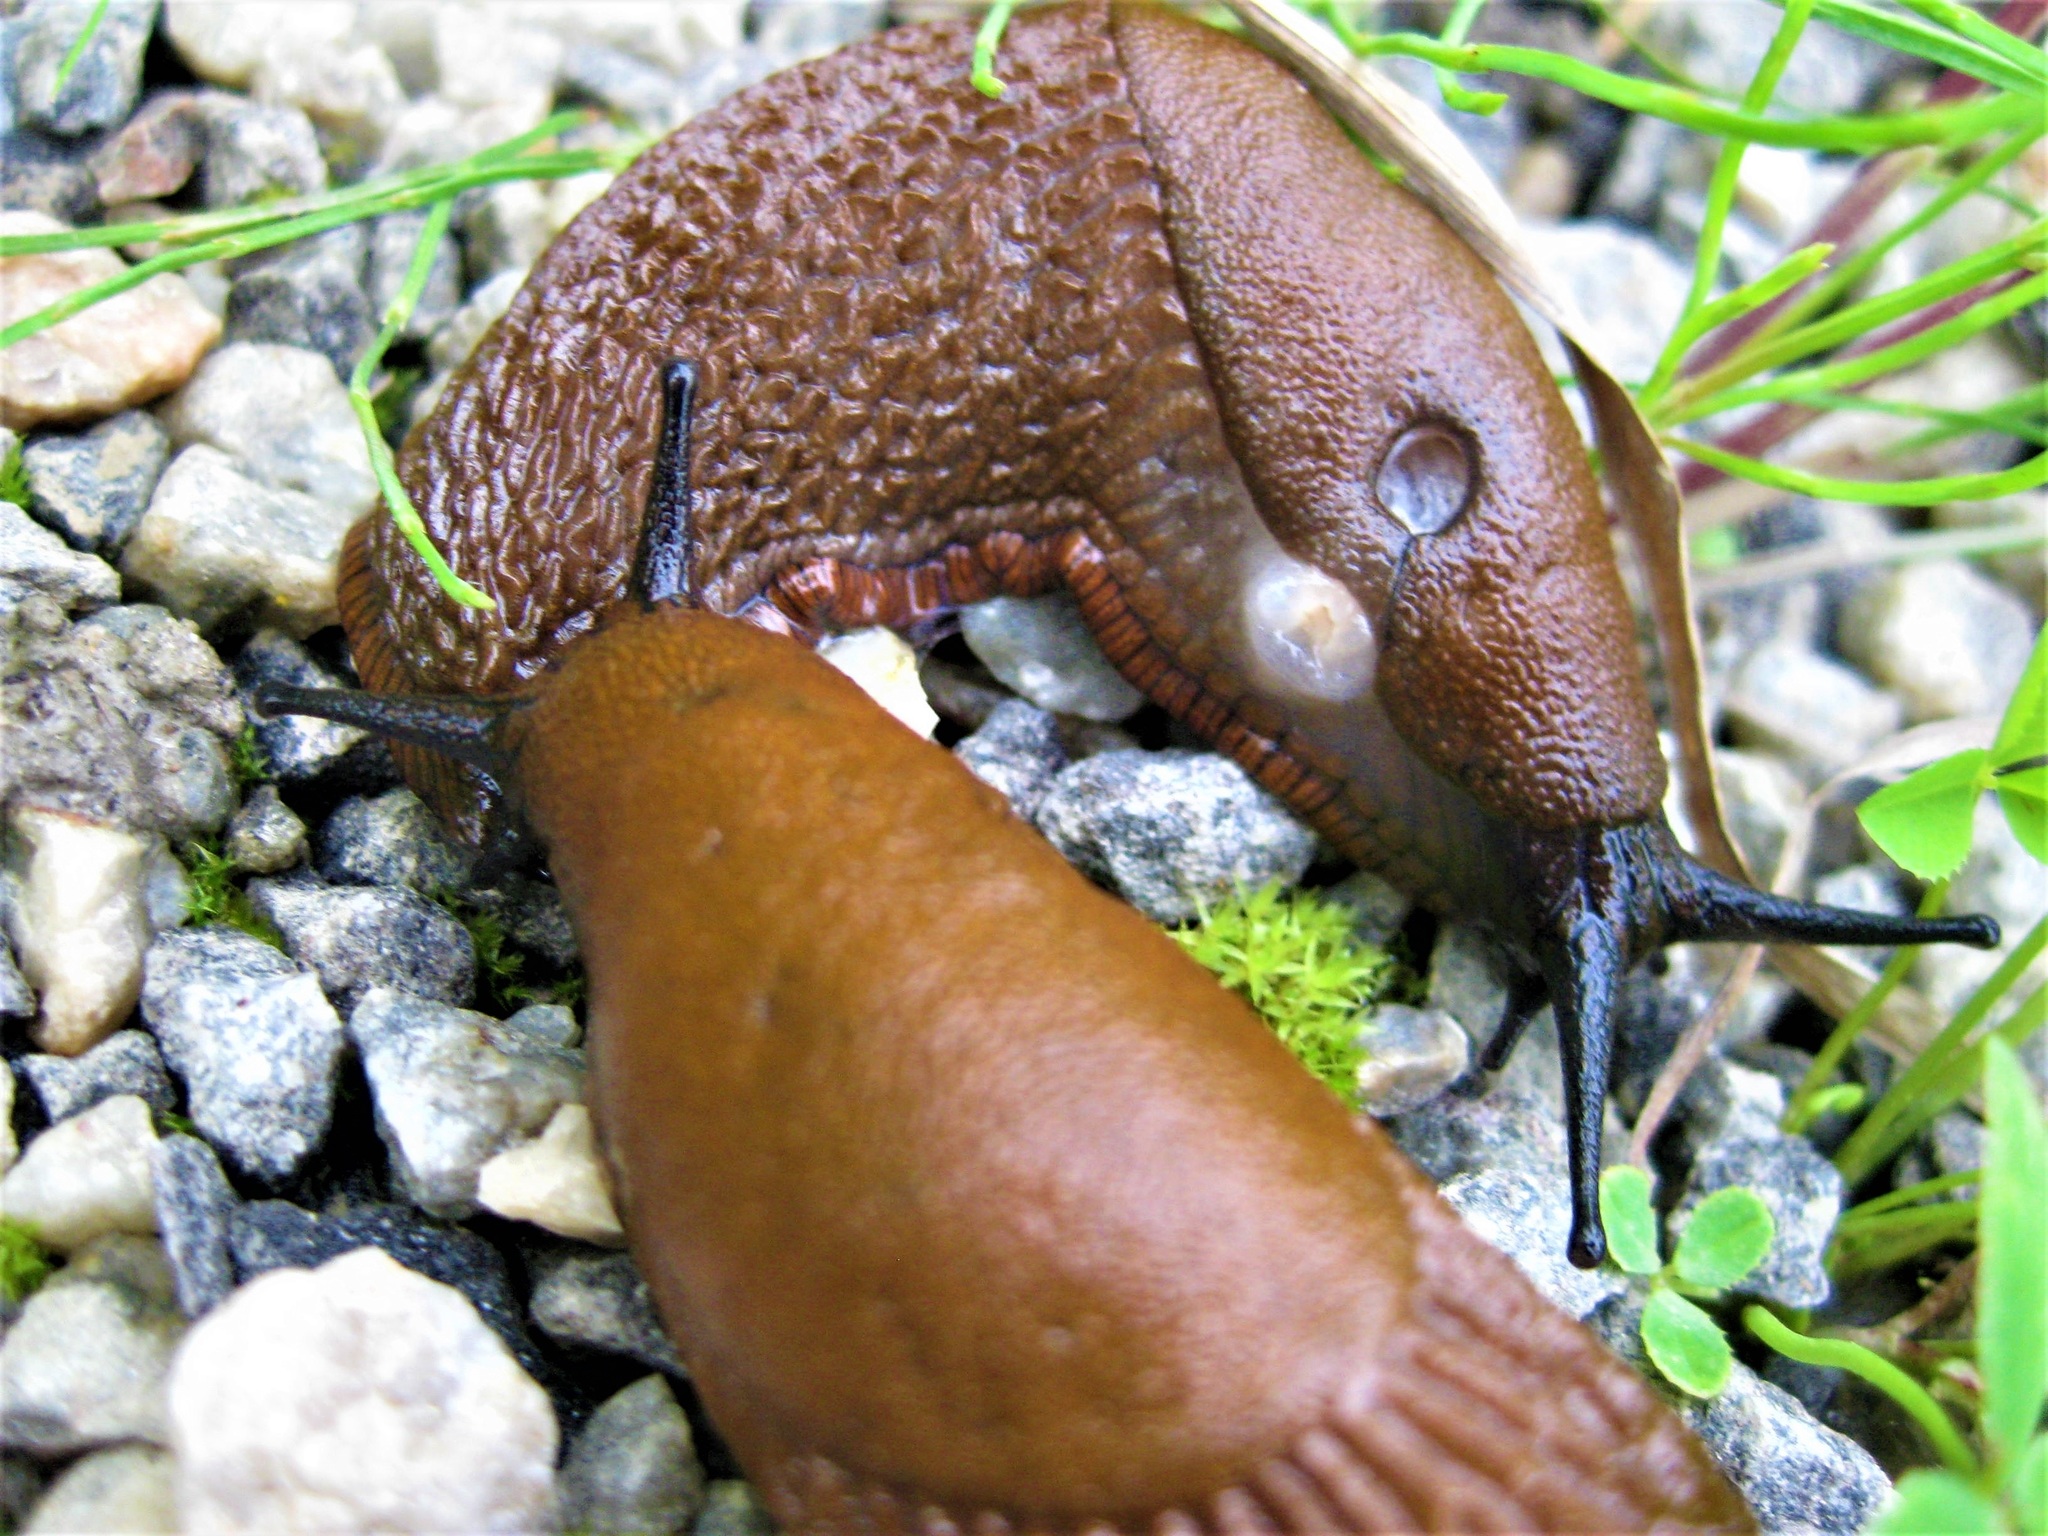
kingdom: Animalia
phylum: Mollusca
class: Gastropoda
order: Stylommatophora
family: Arionidae
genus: Arion
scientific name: Arion vulgaris
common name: Lusitanian slug
